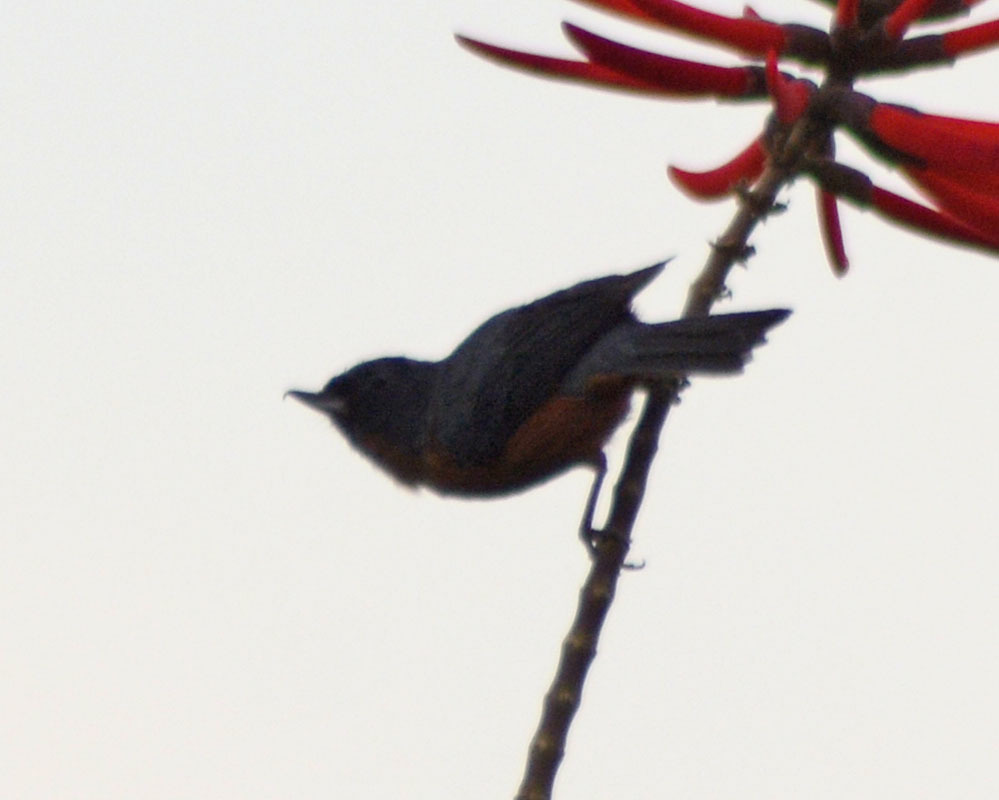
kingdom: Animalia
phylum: Chordata
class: Aves
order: Passeriformes
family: Thraupidae
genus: Diglossa
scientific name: Diglossa baritula
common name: Cinnamon-bellied flowerpiercer
